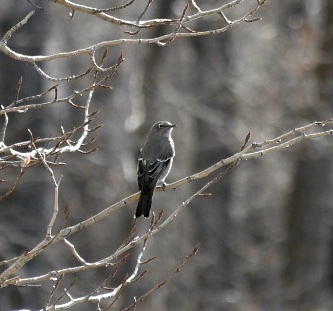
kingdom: Animalia
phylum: Chordata
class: Aves
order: Passeriformes
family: Turdidae
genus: Myadestes
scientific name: Myadestes townsendi
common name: Townsend's solitaire
